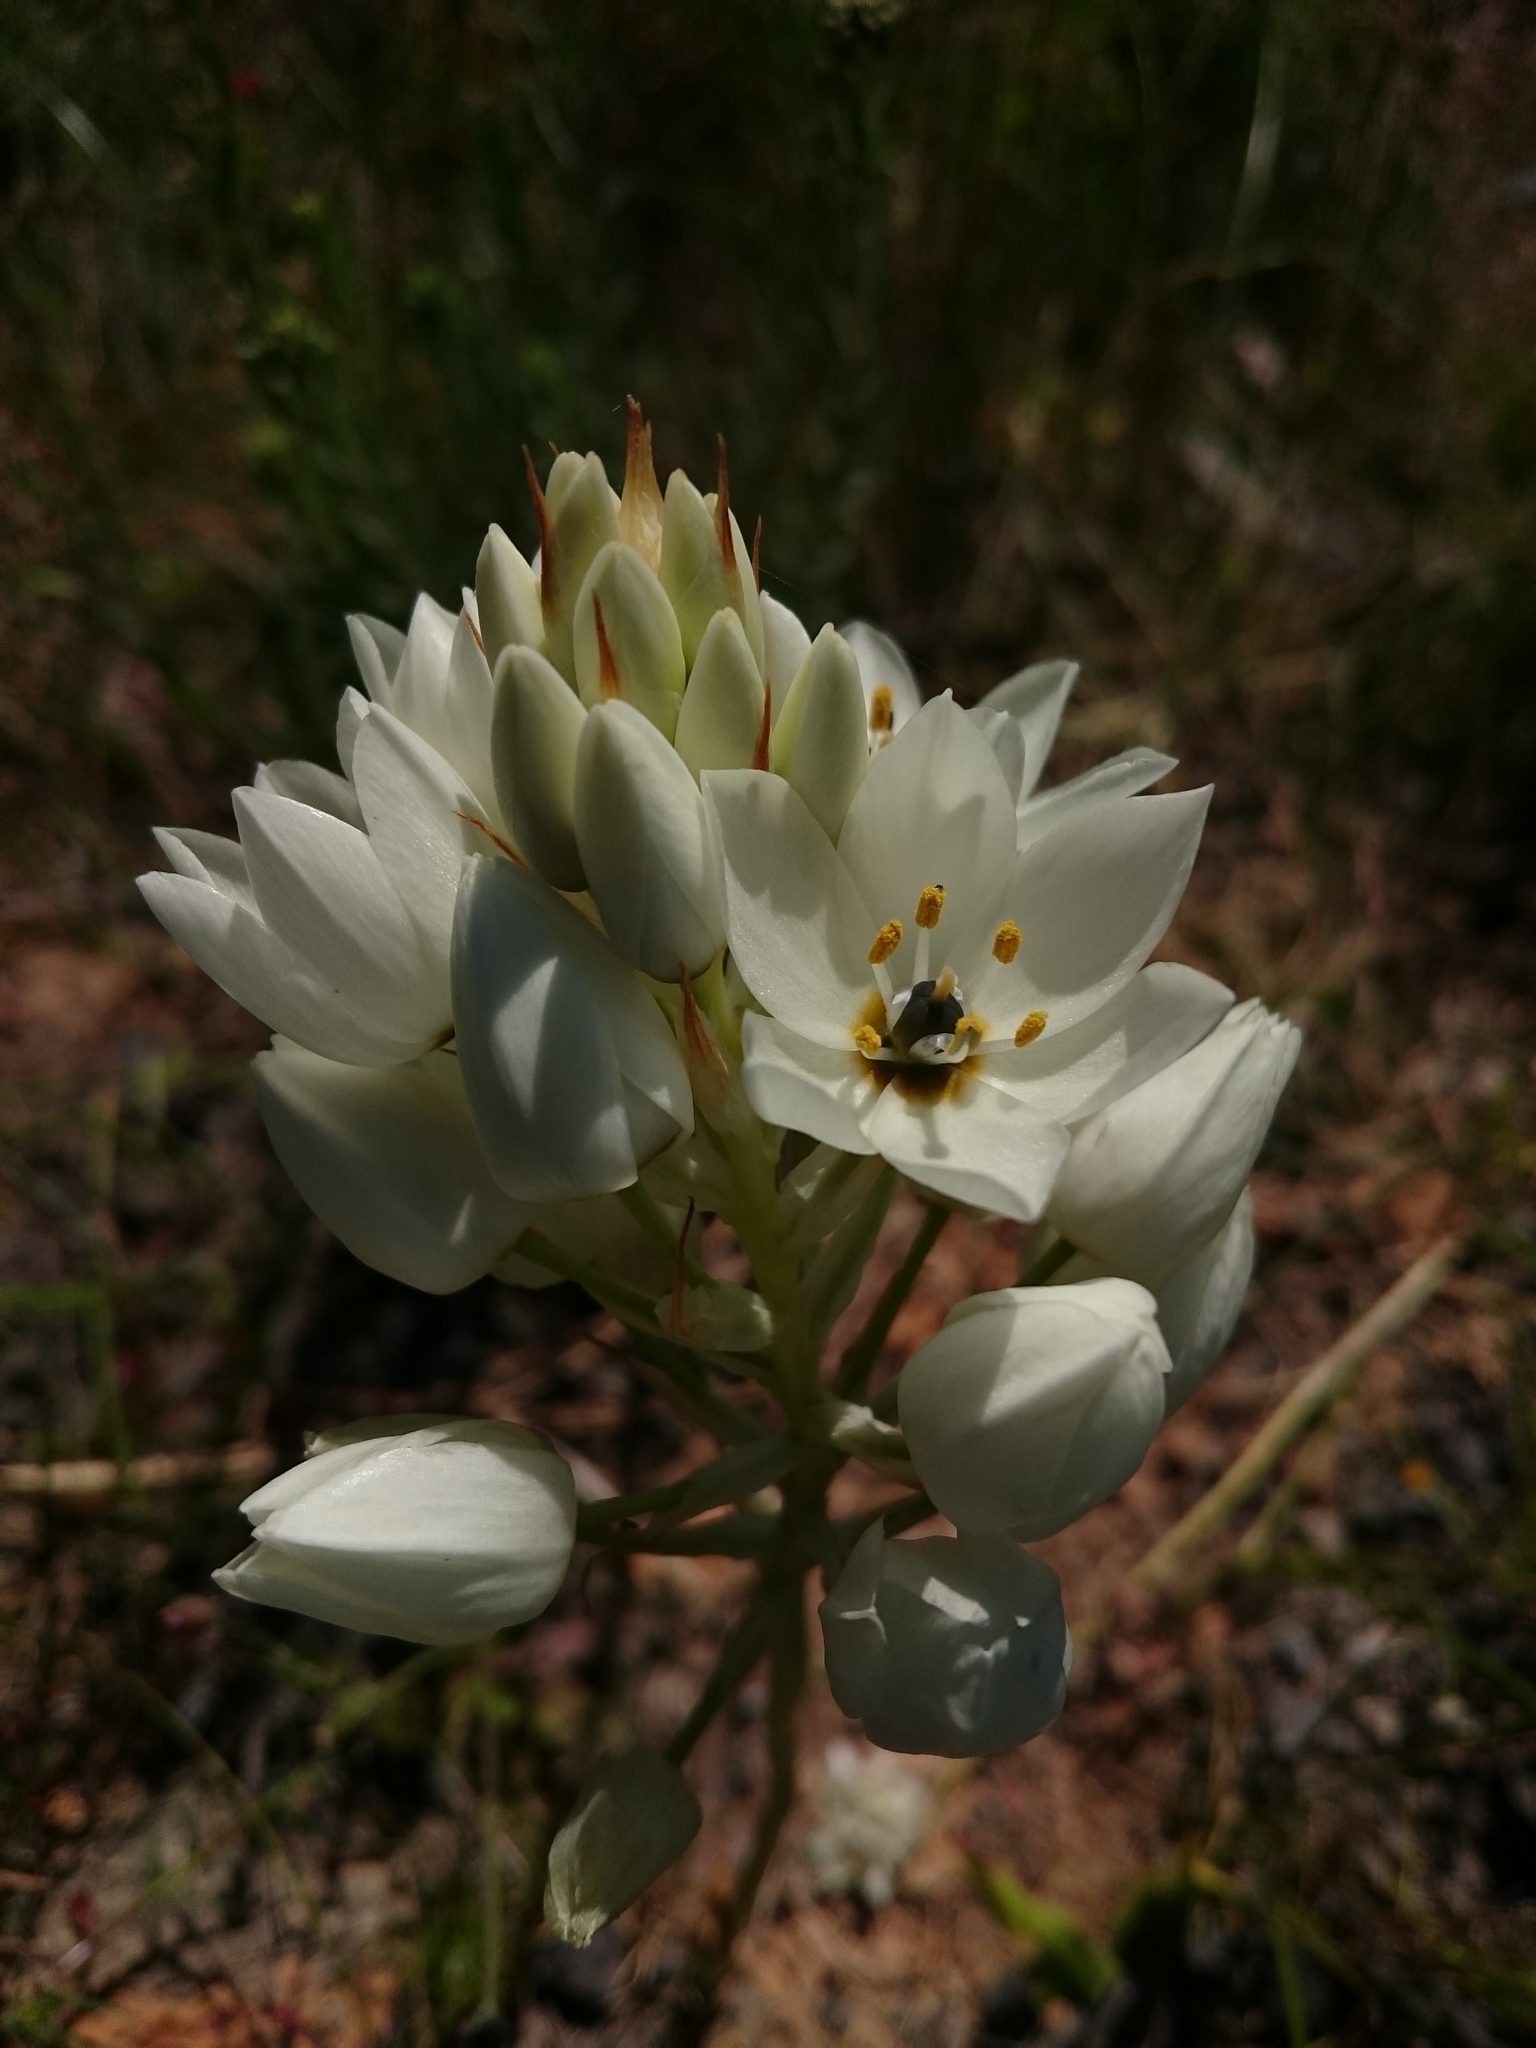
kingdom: Plantae
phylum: Tracheophyta
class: Liliopsida
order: Asparagales
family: Asparagaceae
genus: Ornithogalum
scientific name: Ornithogalum dubium
